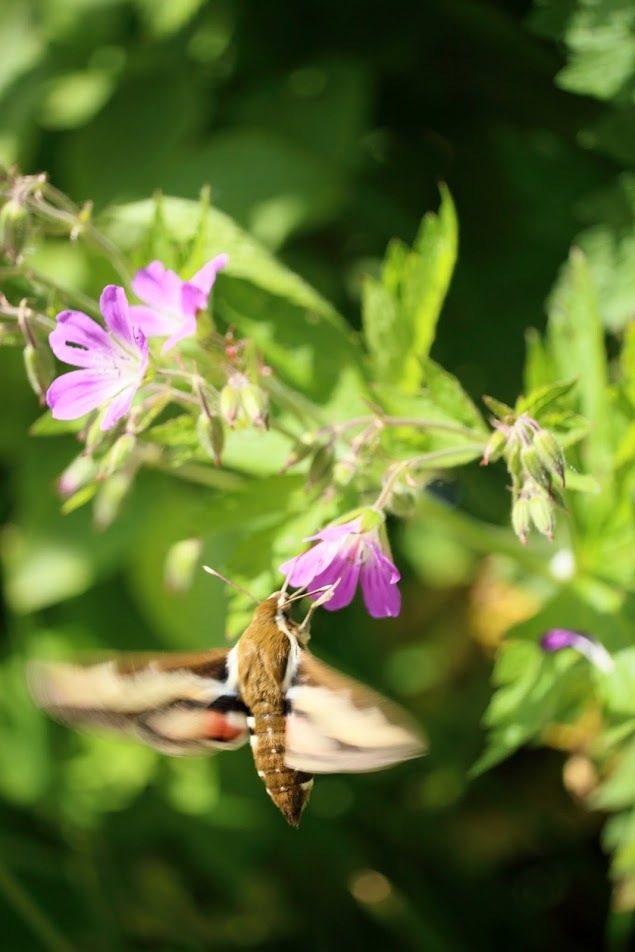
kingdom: Animalia
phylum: Arthropoda
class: Insecta
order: Lepidoptera
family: Sphingidae
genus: Hyles
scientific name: Hyles gallii
